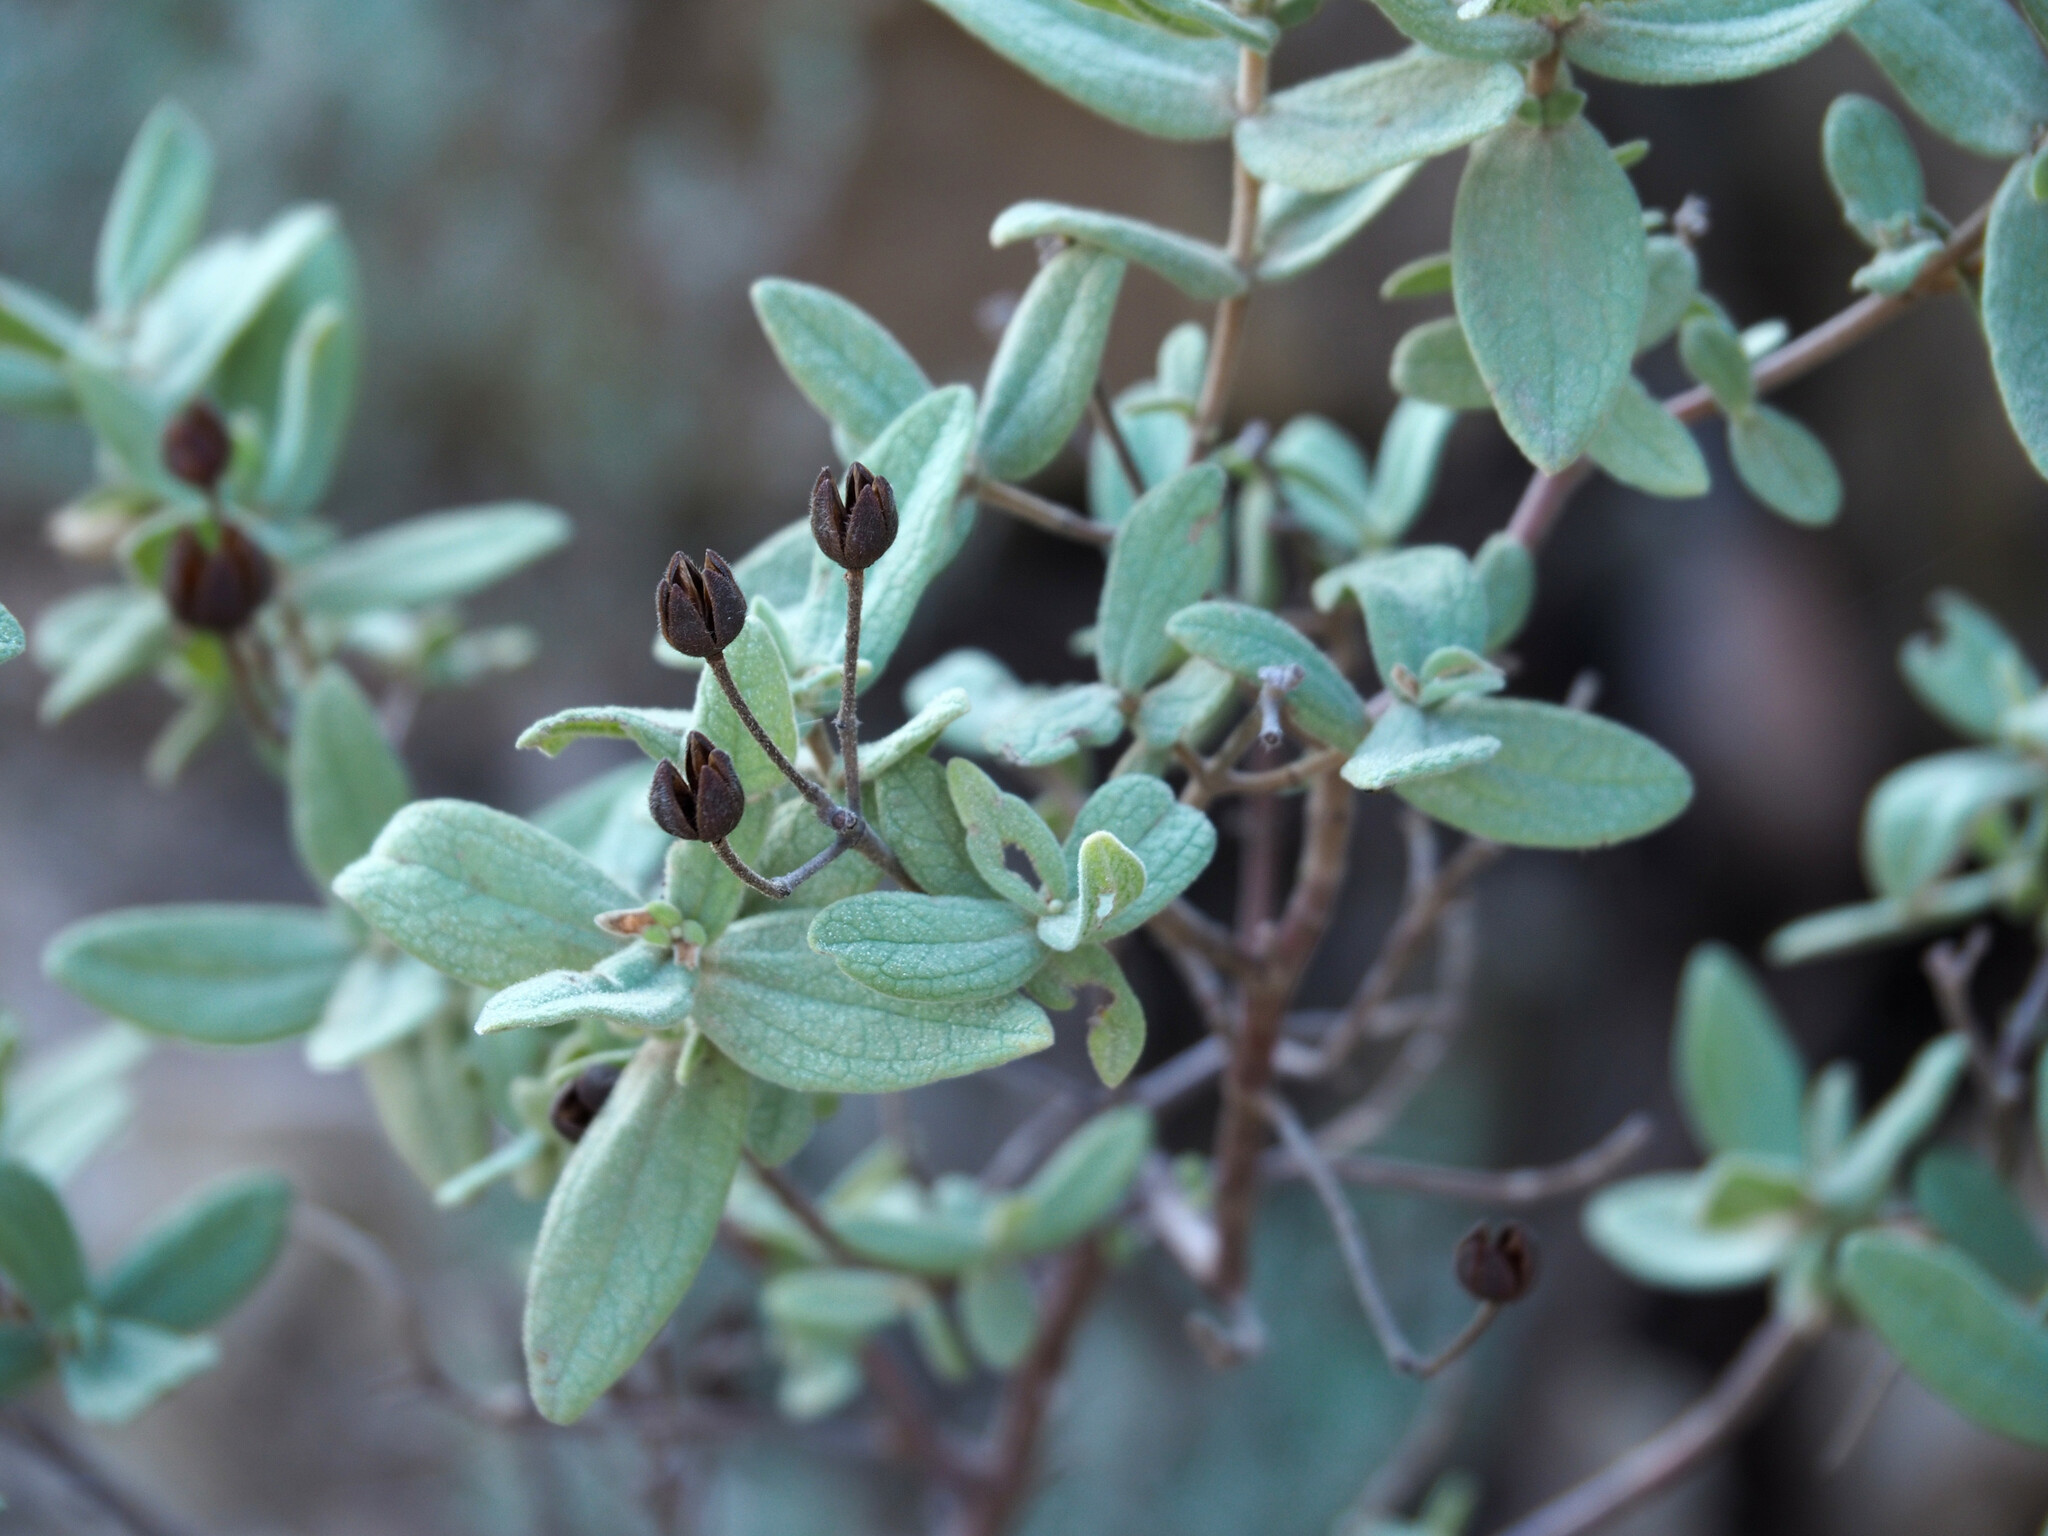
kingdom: Plantae
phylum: Tracheophyta
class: Magnoliopsida
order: Malvales
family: Cistaceae
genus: Cistus
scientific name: Cistus albidus
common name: White-leaf rock-rose
